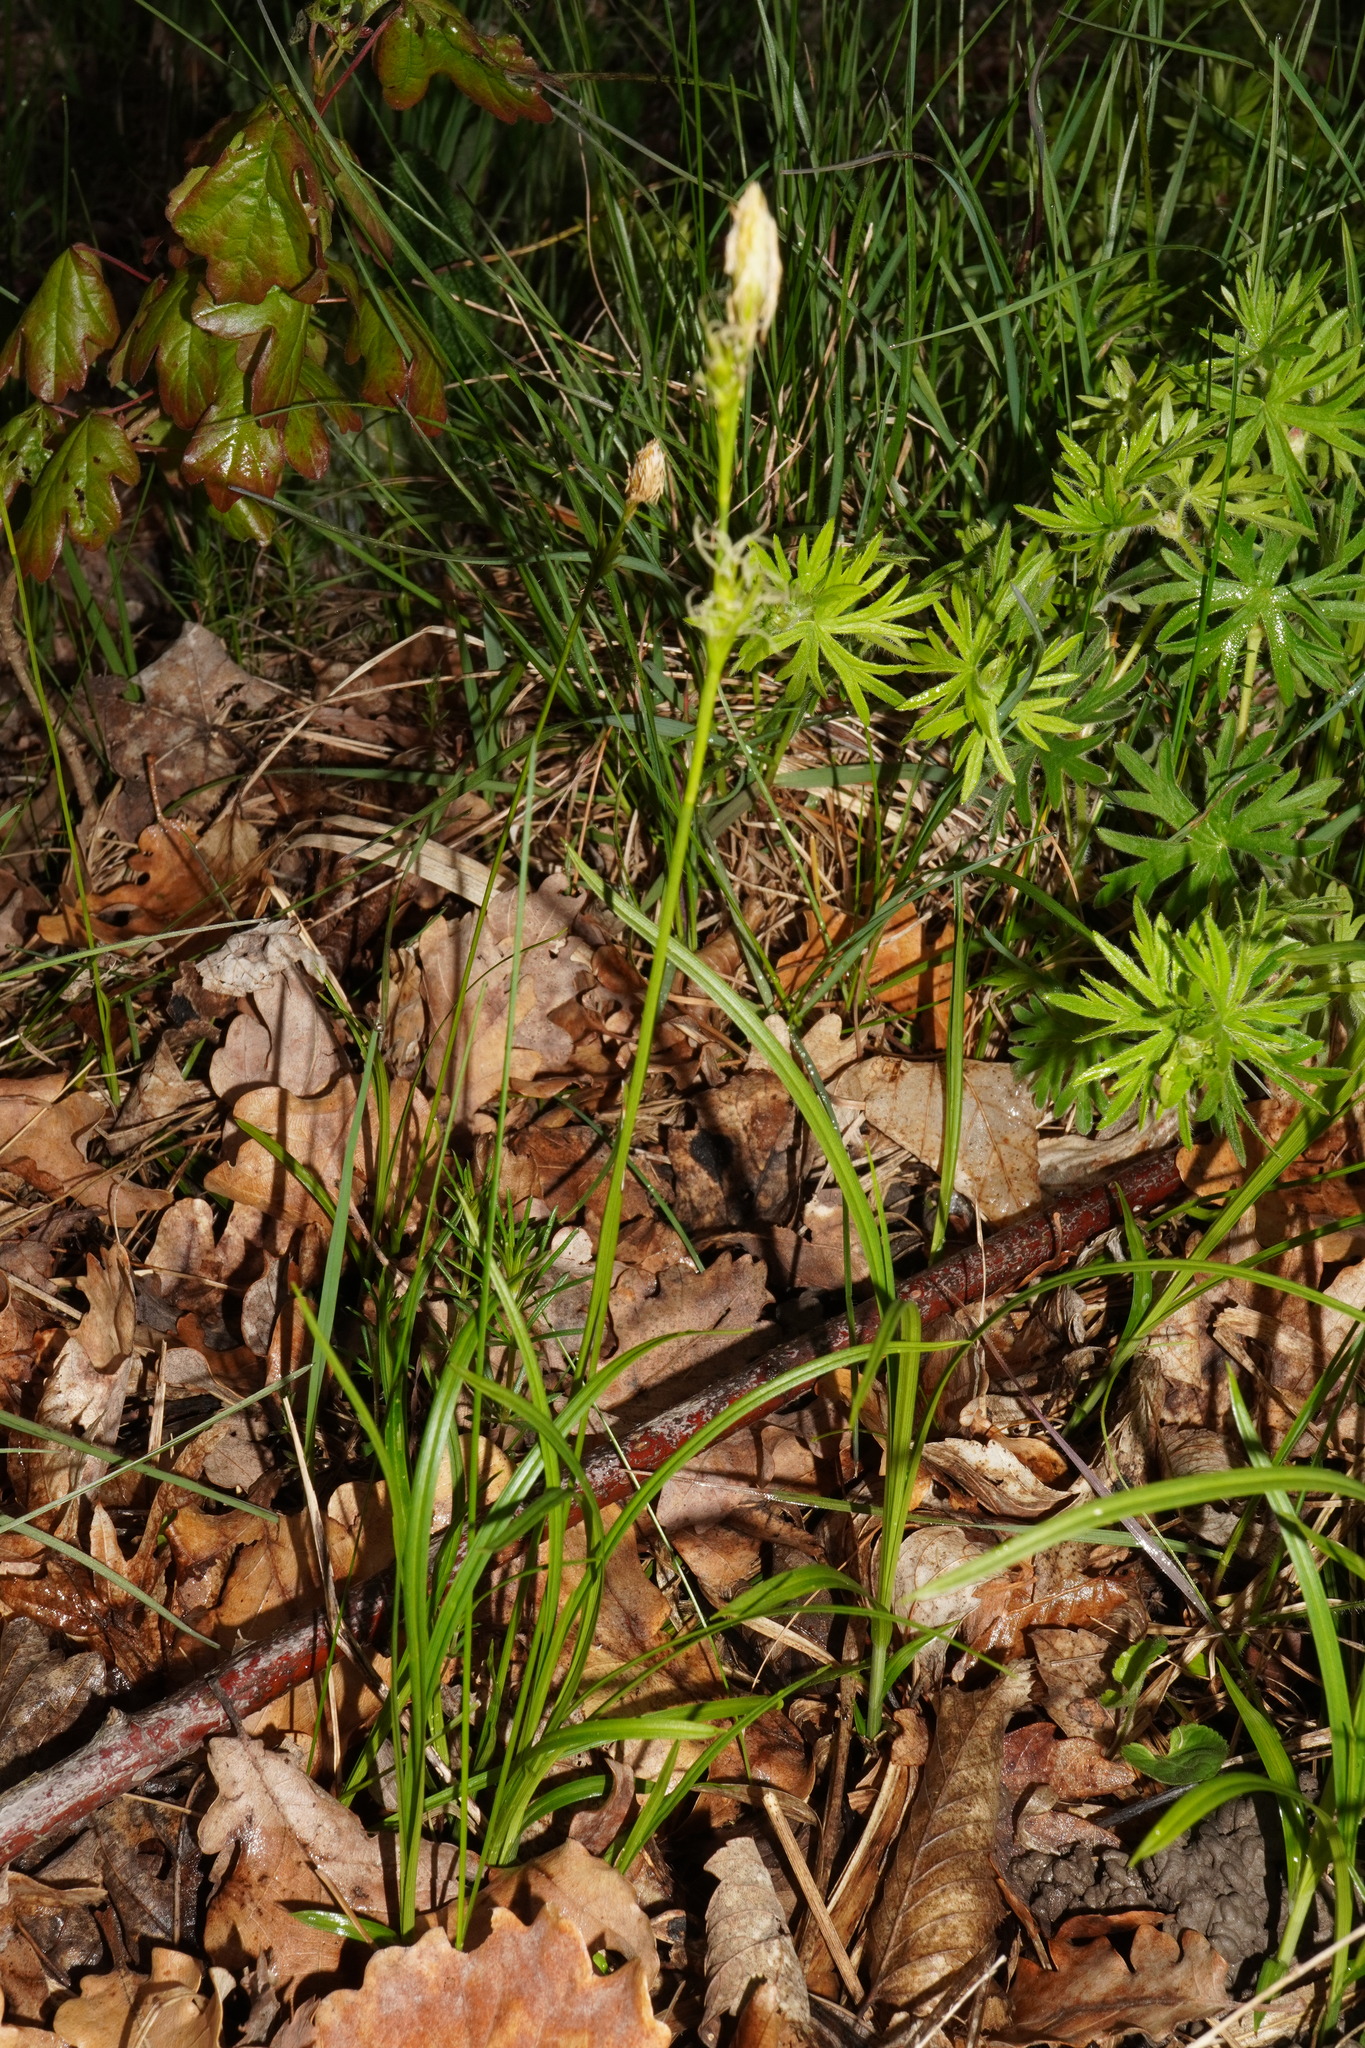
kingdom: Plantae
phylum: Tracheophyta
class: Liliopsida
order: Poales
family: Cyperaceae
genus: Carex
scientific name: Carex michelii
